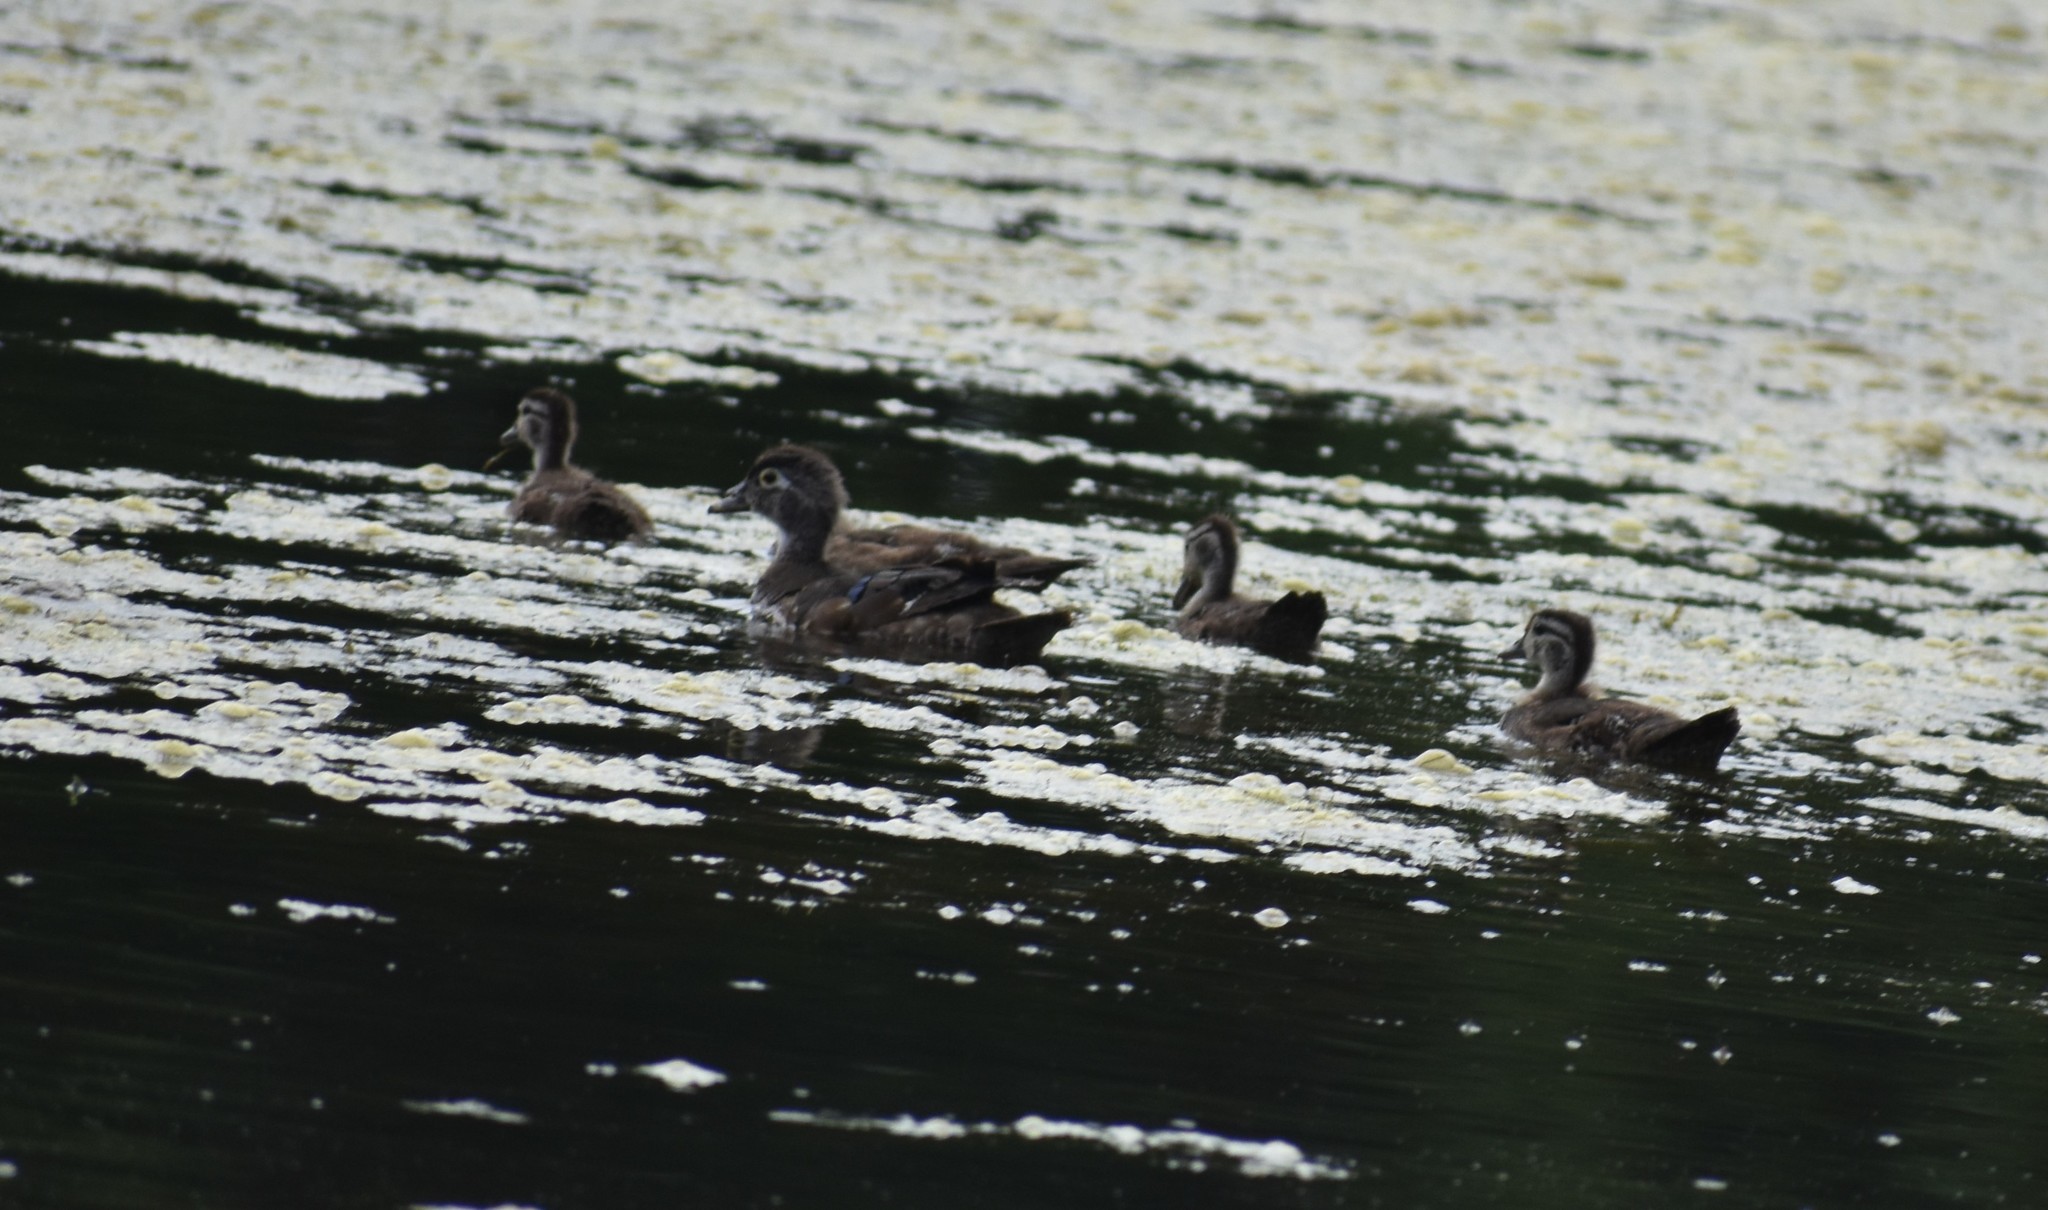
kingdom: Animalia
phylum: Chordata
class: Aves
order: Anseriformes
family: Anatidae
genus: Aix
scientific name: Aix sponsa
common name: Wood duck
